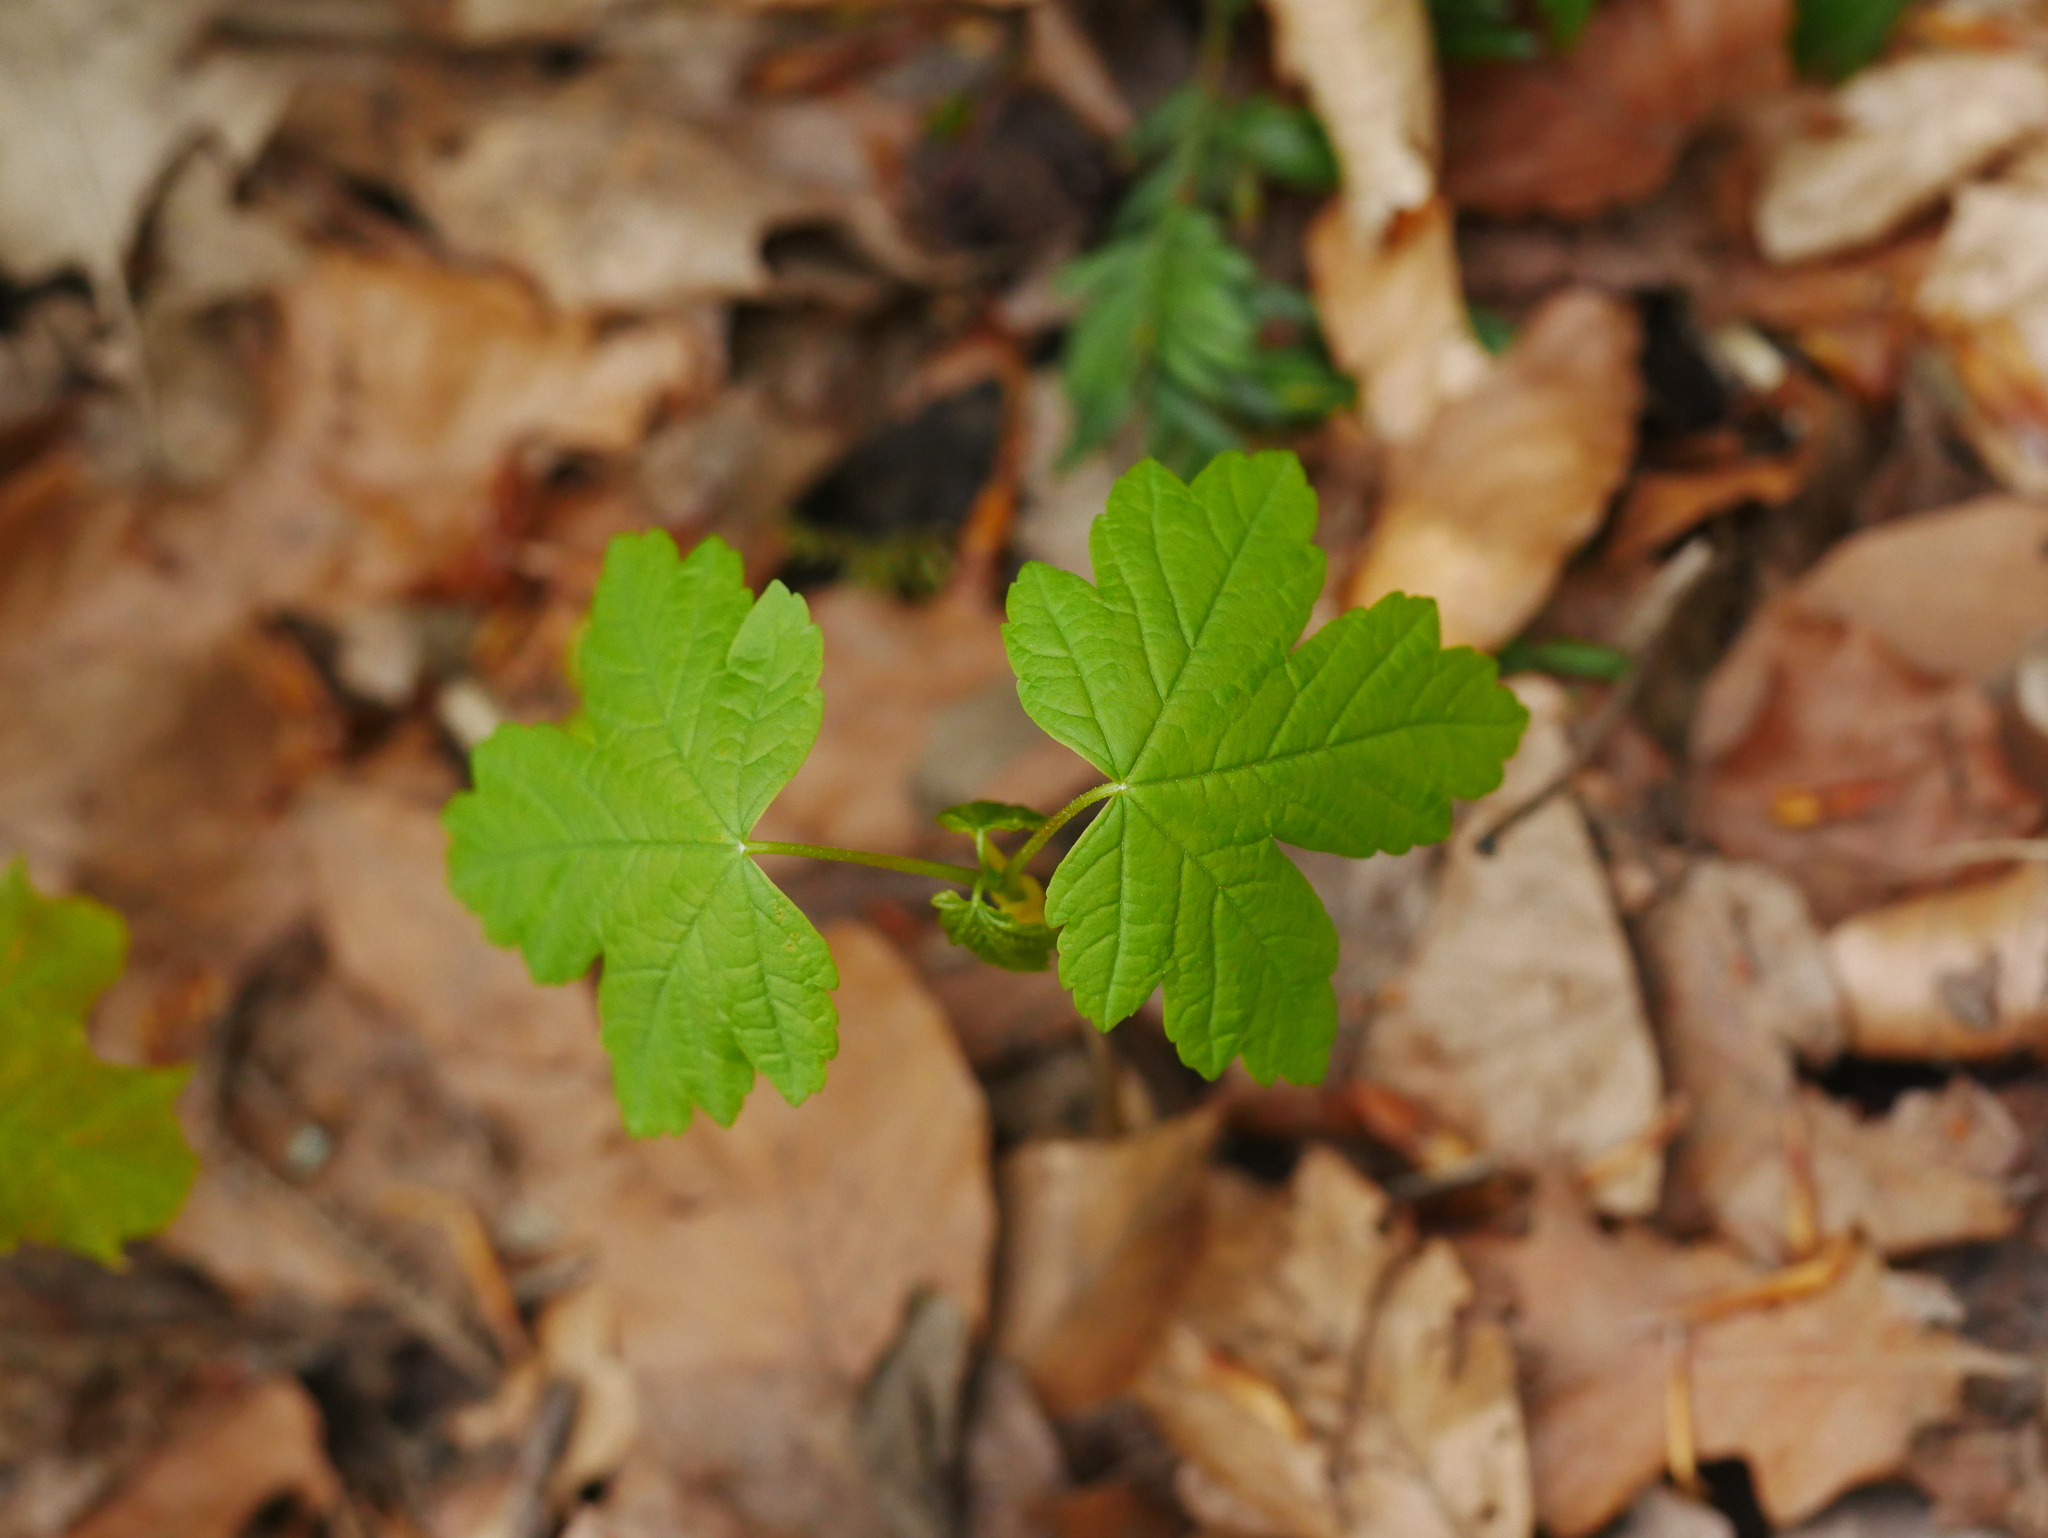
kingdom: Plantae
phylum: Tracheophyta
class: Magnoliopsida
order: Sapindales
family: Sapindaceae
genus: Acer
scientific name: Acer pseudoplatanus
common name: Sycamore
